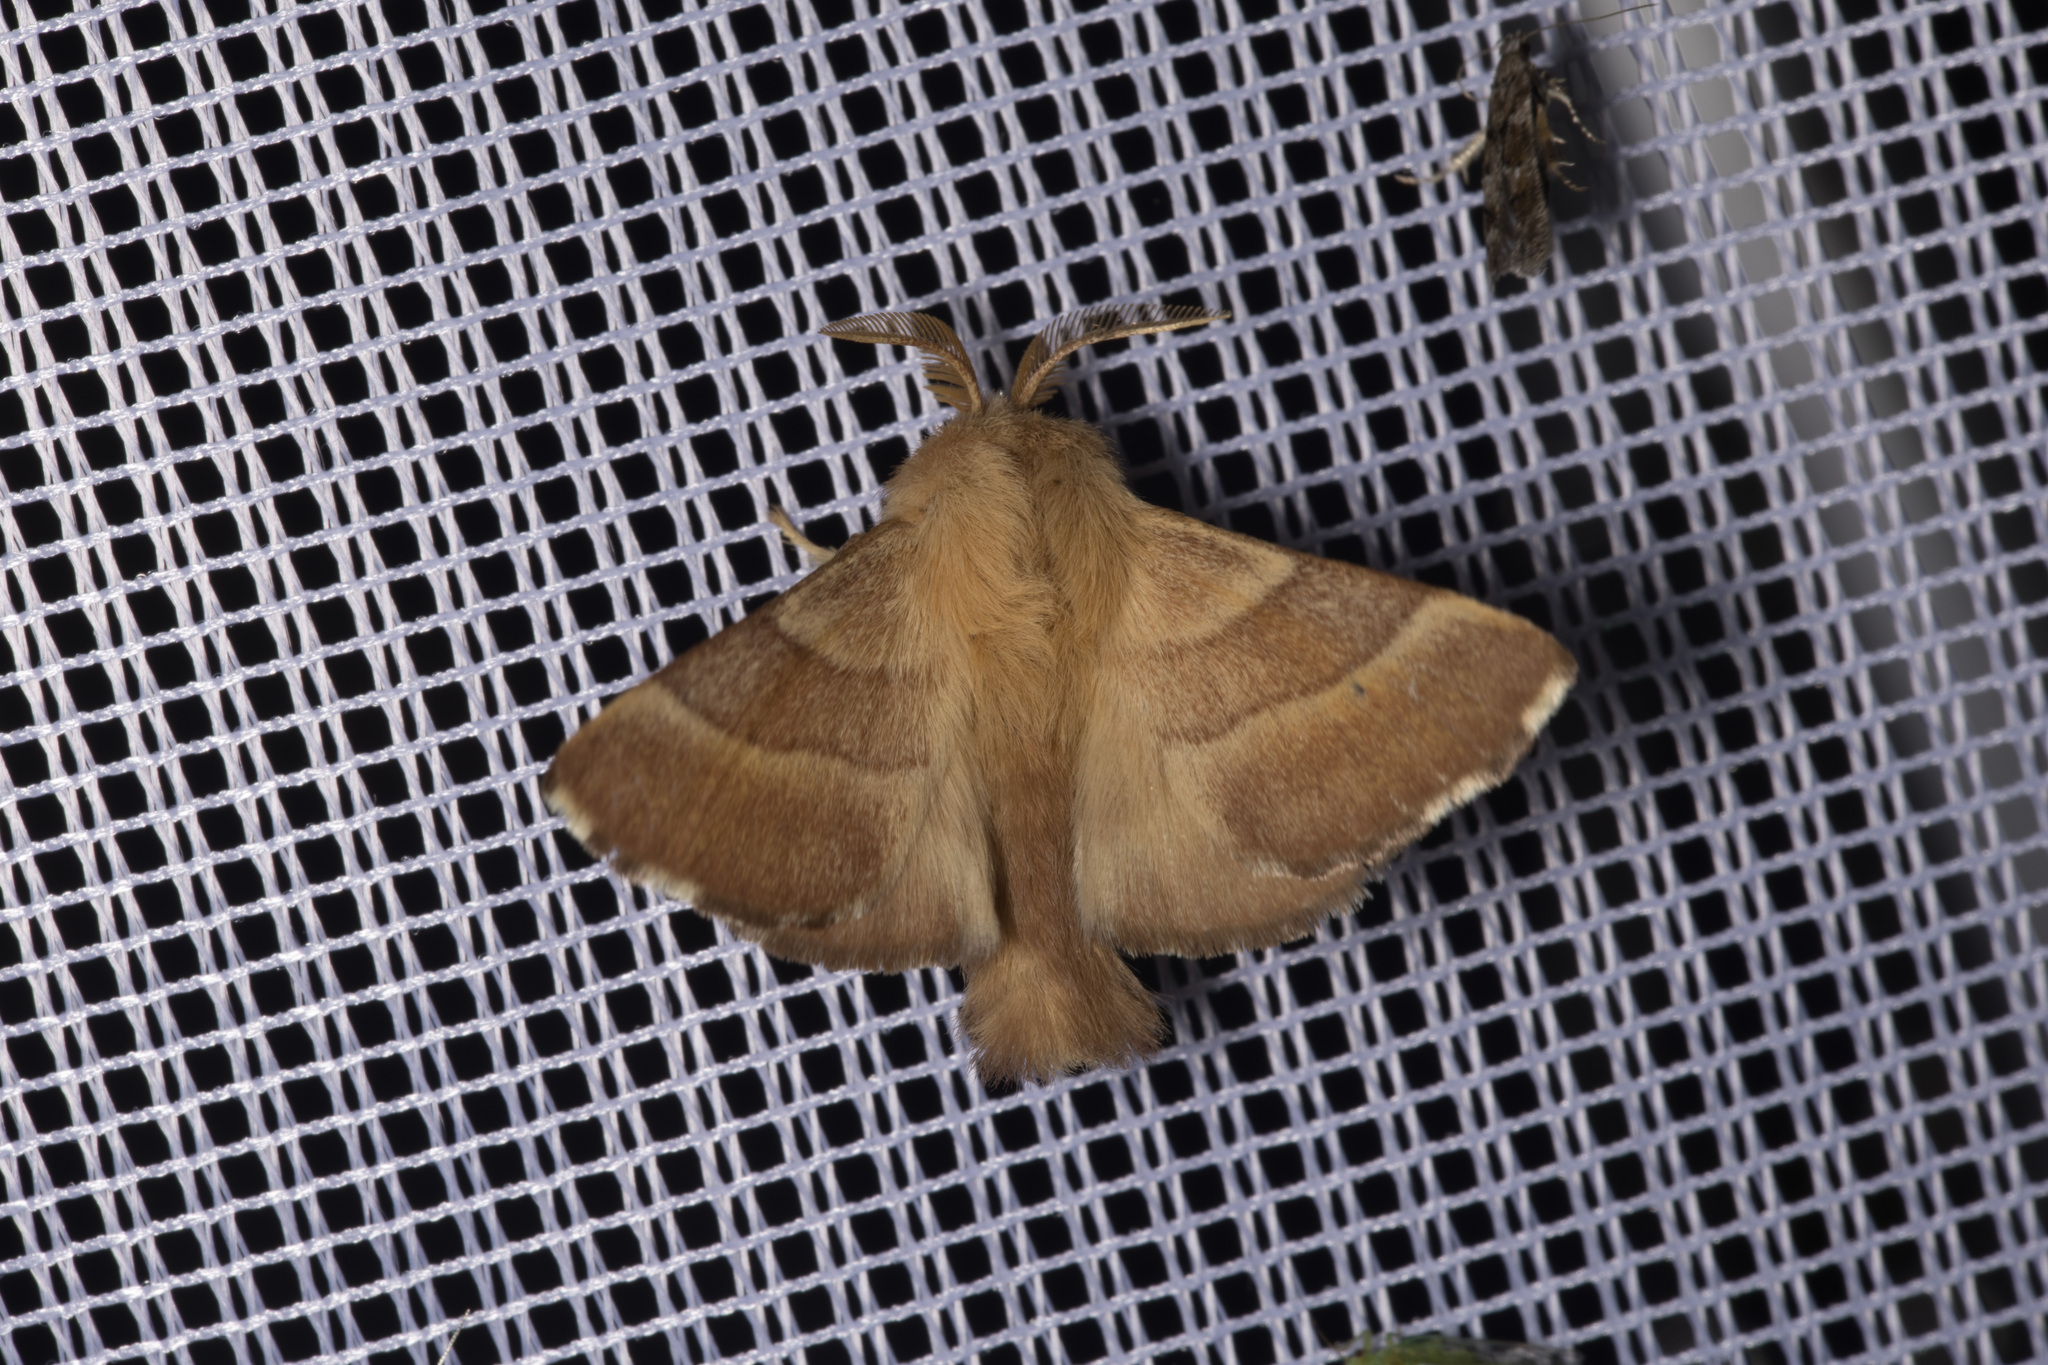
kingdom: Animalia
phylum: Arthropoda
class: Insecta
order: Lepidoptera
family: Lasiocampidae
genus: Malacosoma
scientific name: Malacosoma neustria
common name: The lackey
